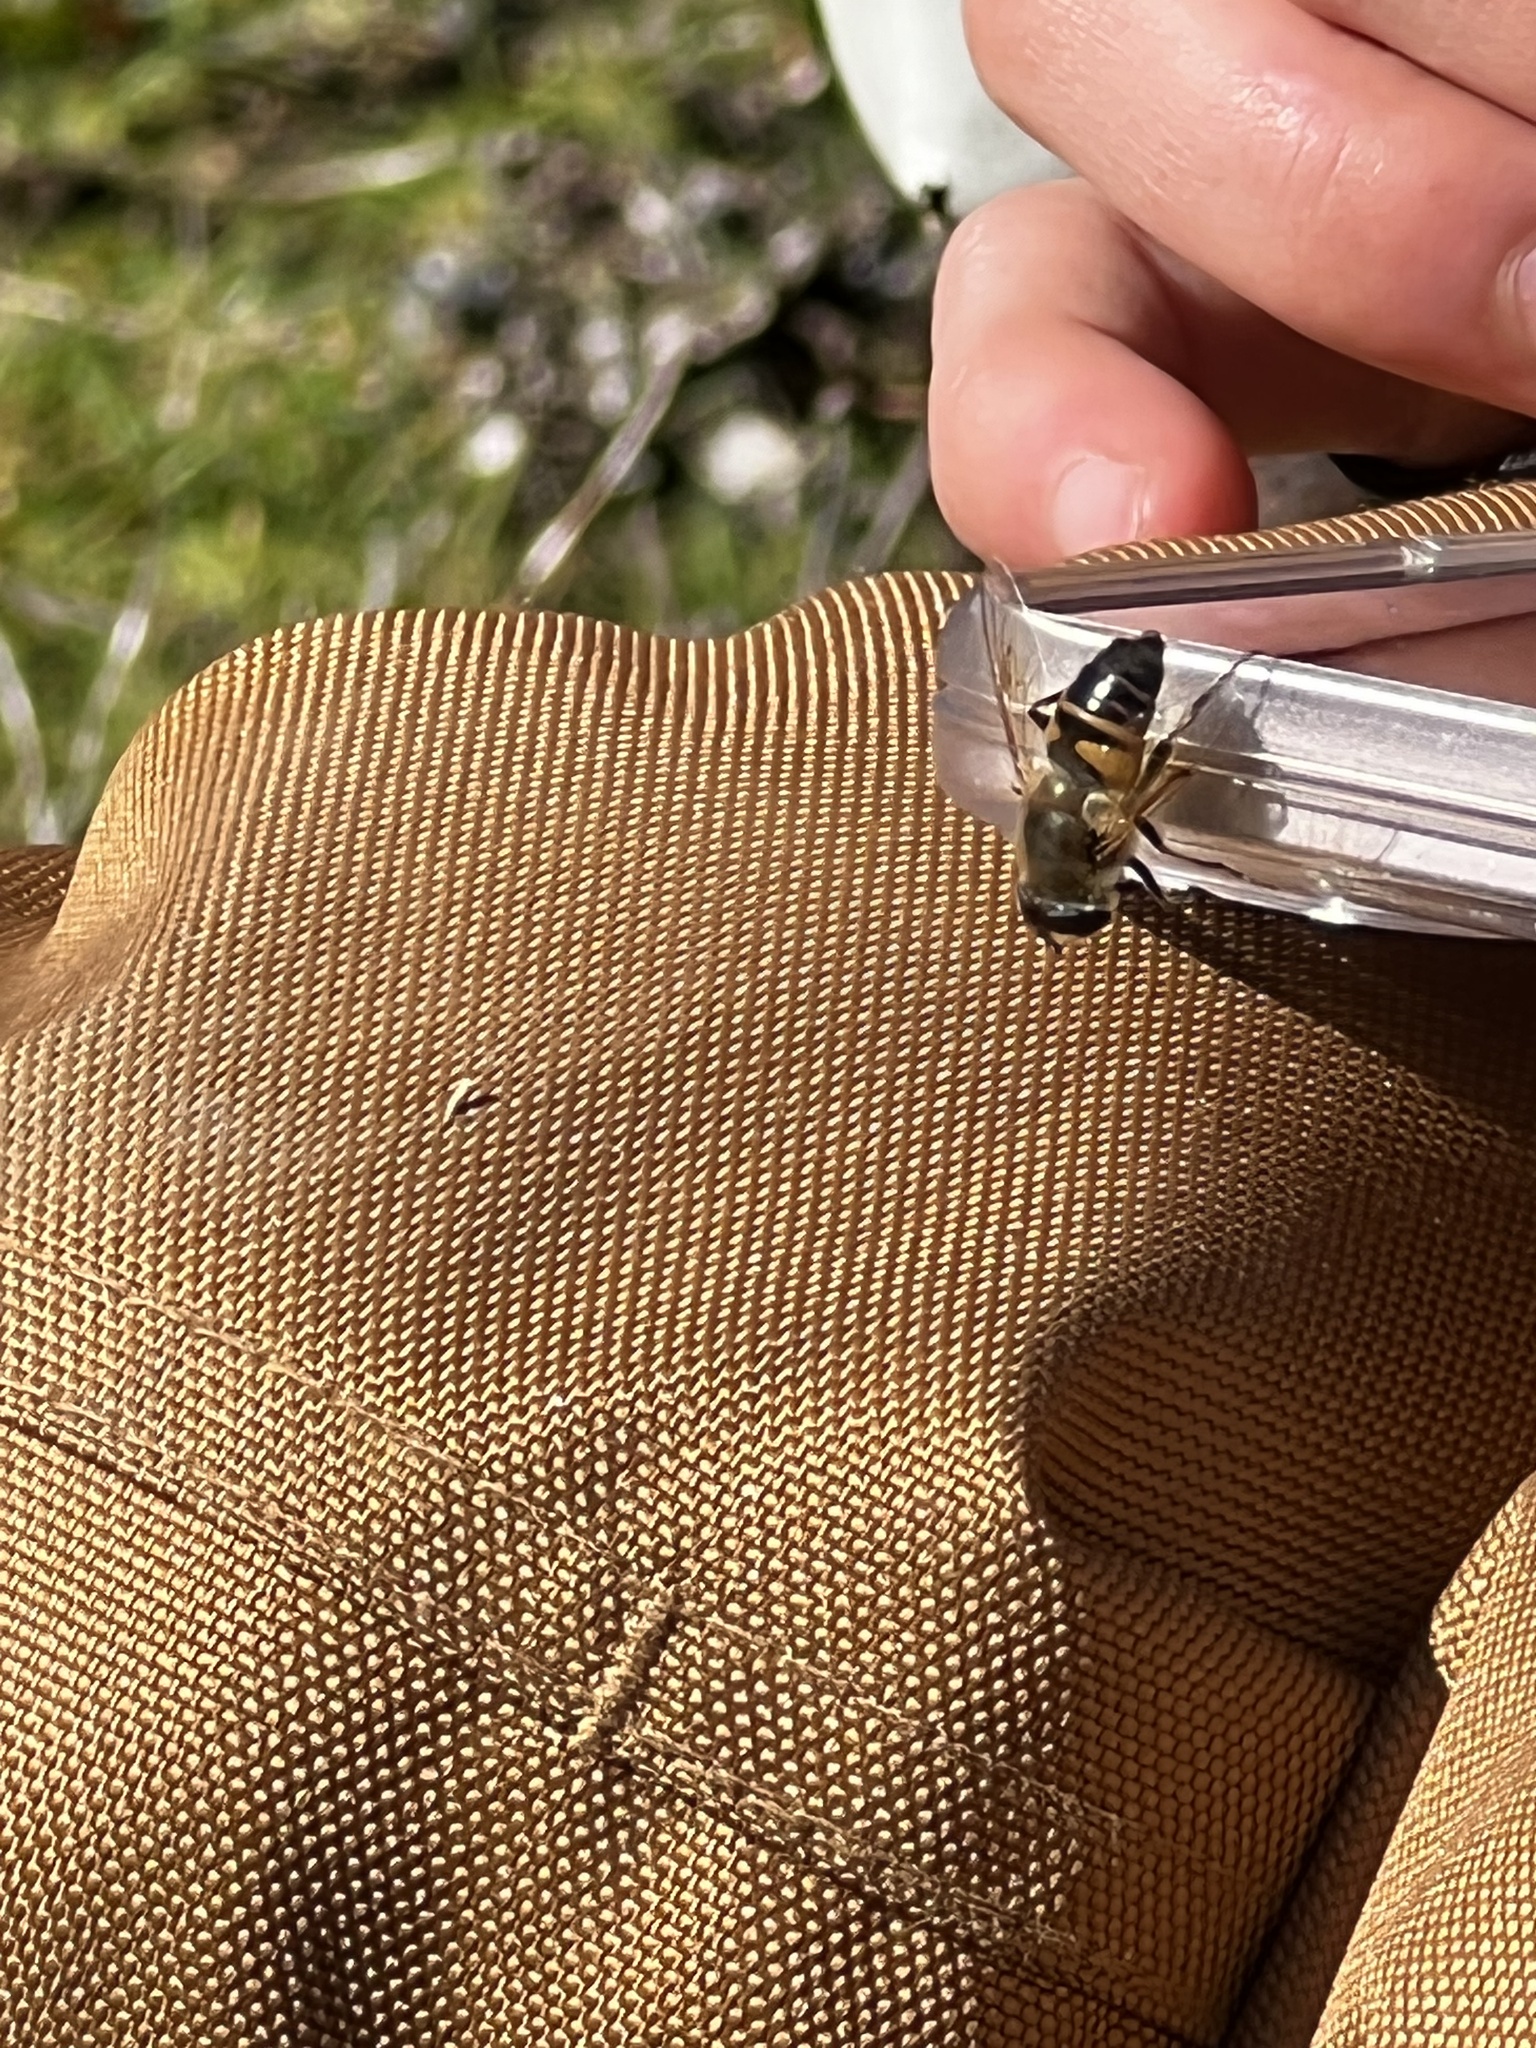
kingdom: Animalia
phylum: Arthropoda
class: Insecta
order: Diptera
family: Syrphidae
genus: Eristalis
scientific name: Eristalis tenax
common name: Drone fly
